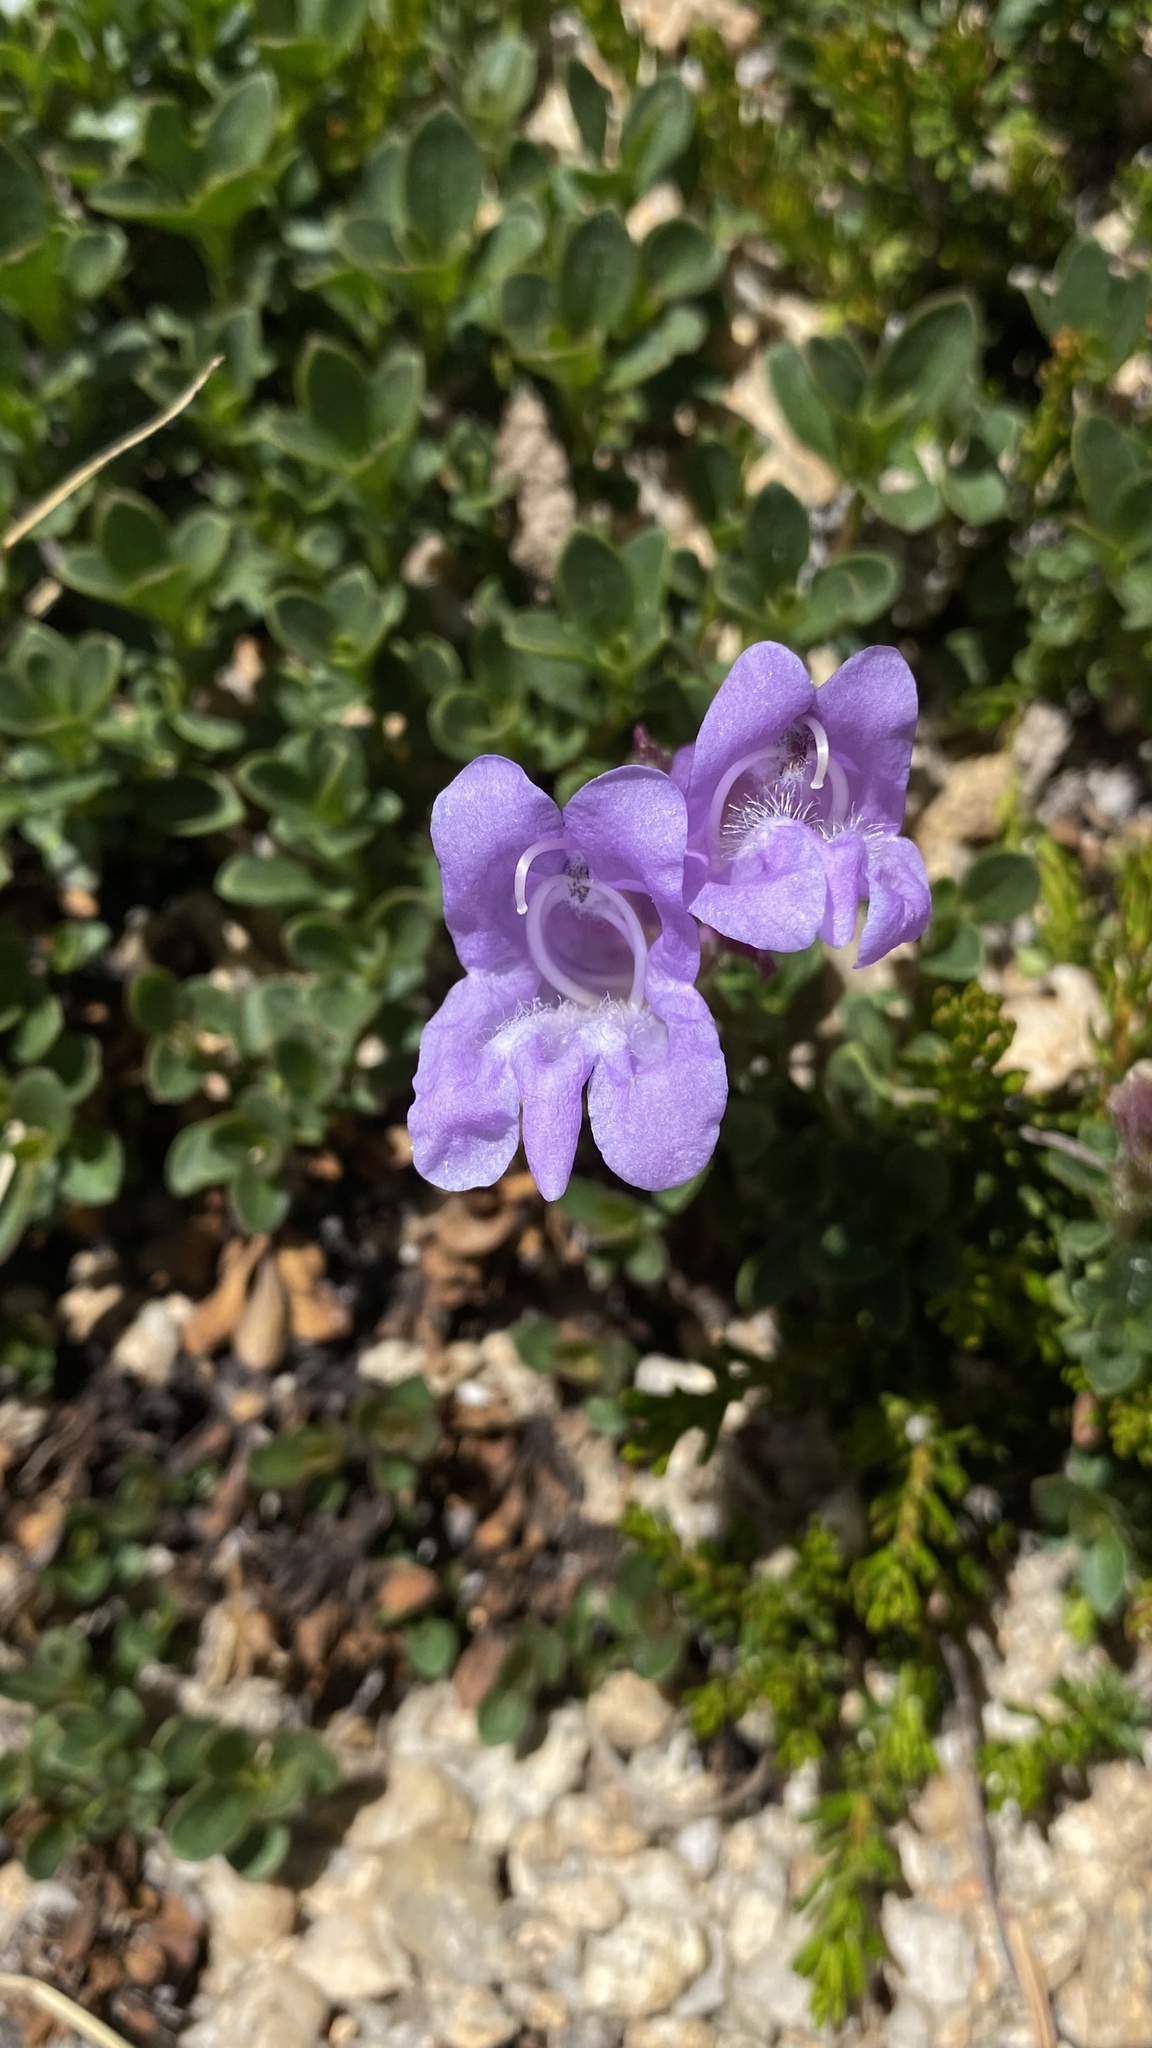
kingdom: Plantae
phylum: Tracheophyta
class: Magnoliopsida
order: Lamiales
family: Plantaginaceae
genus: Penstemon
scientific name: Penstemon davidsonii
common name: Davidson's penstemon
